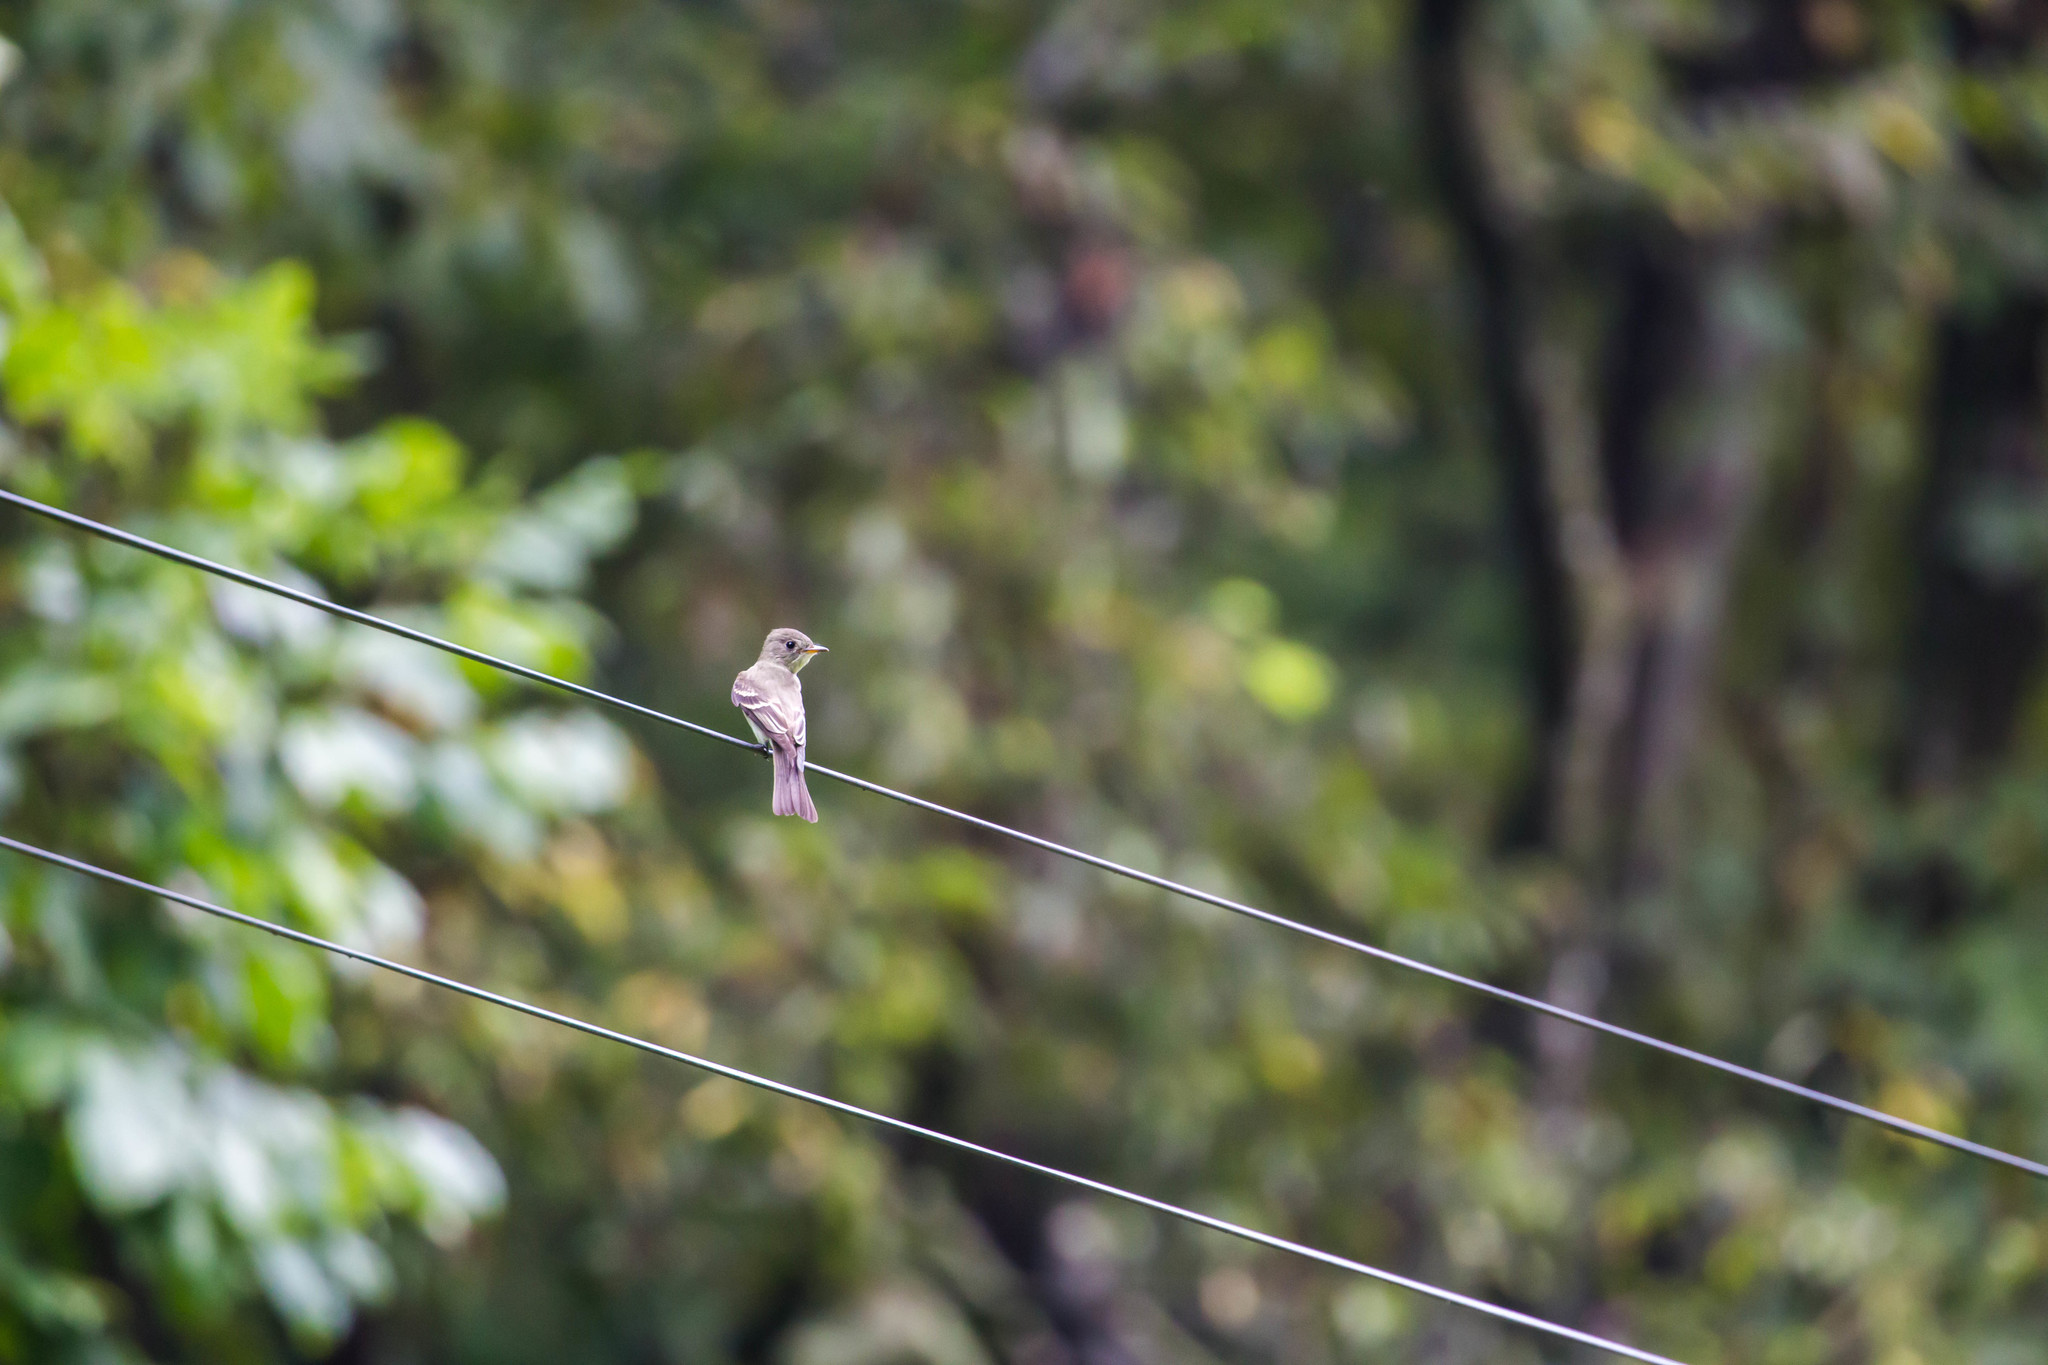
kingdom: Animalia
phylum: Chordata
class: Aves
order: Passeriformes
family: Tyrannidae
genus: Contopus
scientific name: Contopus virens
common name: Eastern wood-pewee
